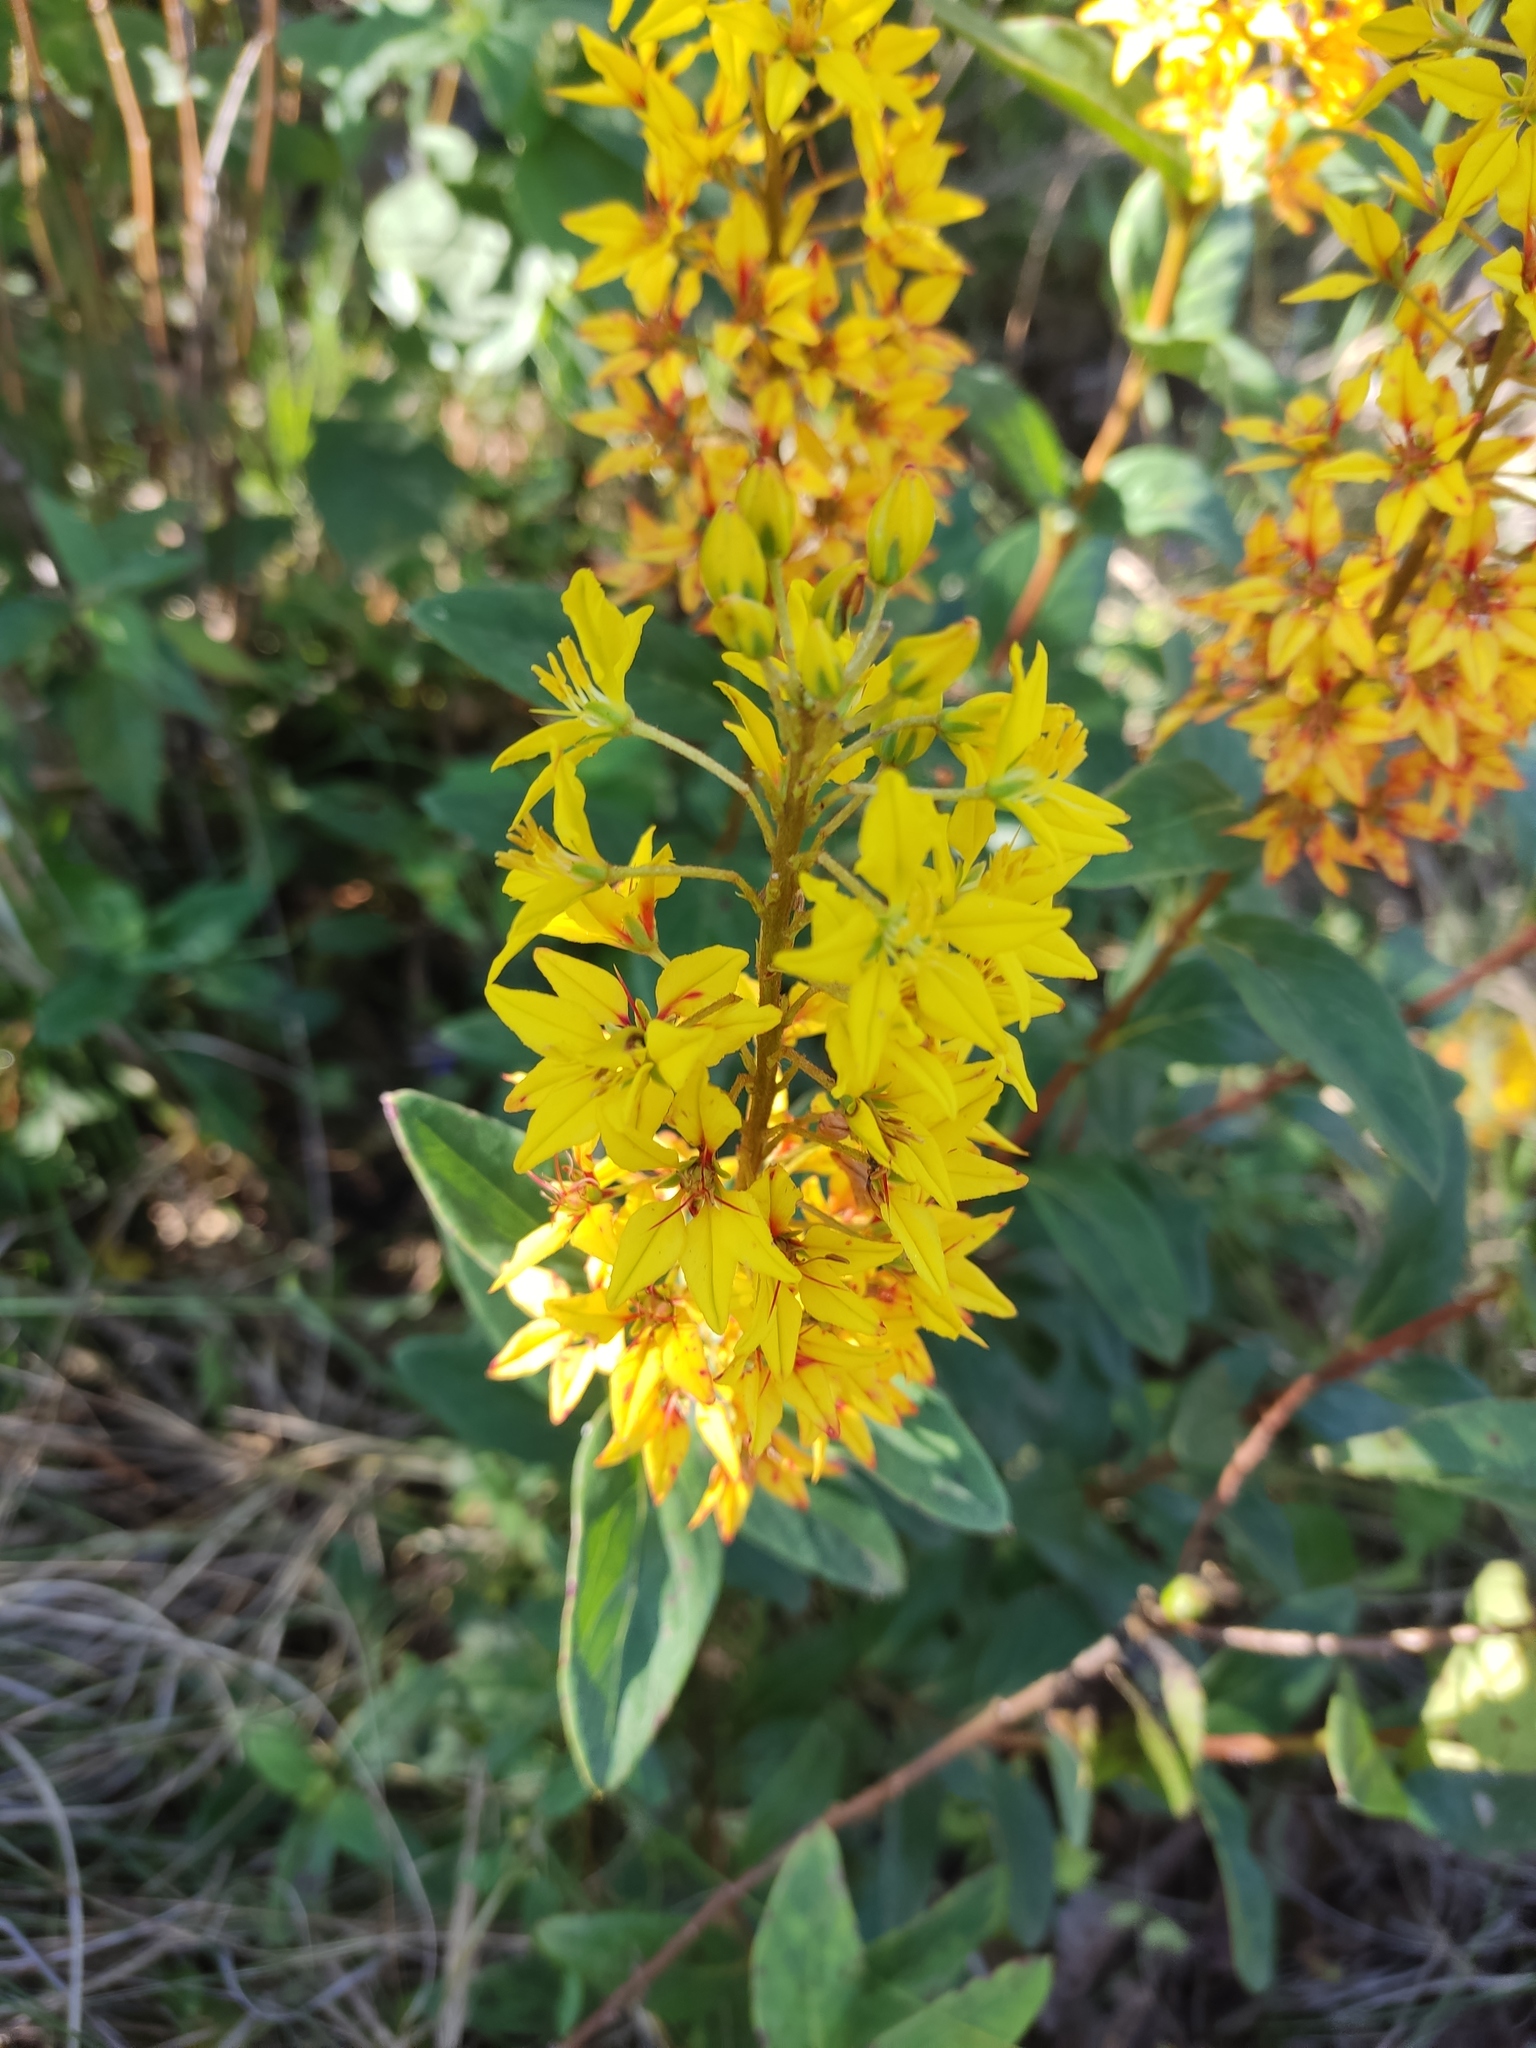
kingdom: Plantae
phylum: Tracheophyta
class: Magnoliopsida
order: Malpighiales
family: Malpighiaceae
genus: Galphimia
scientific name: Galphimia glauca
